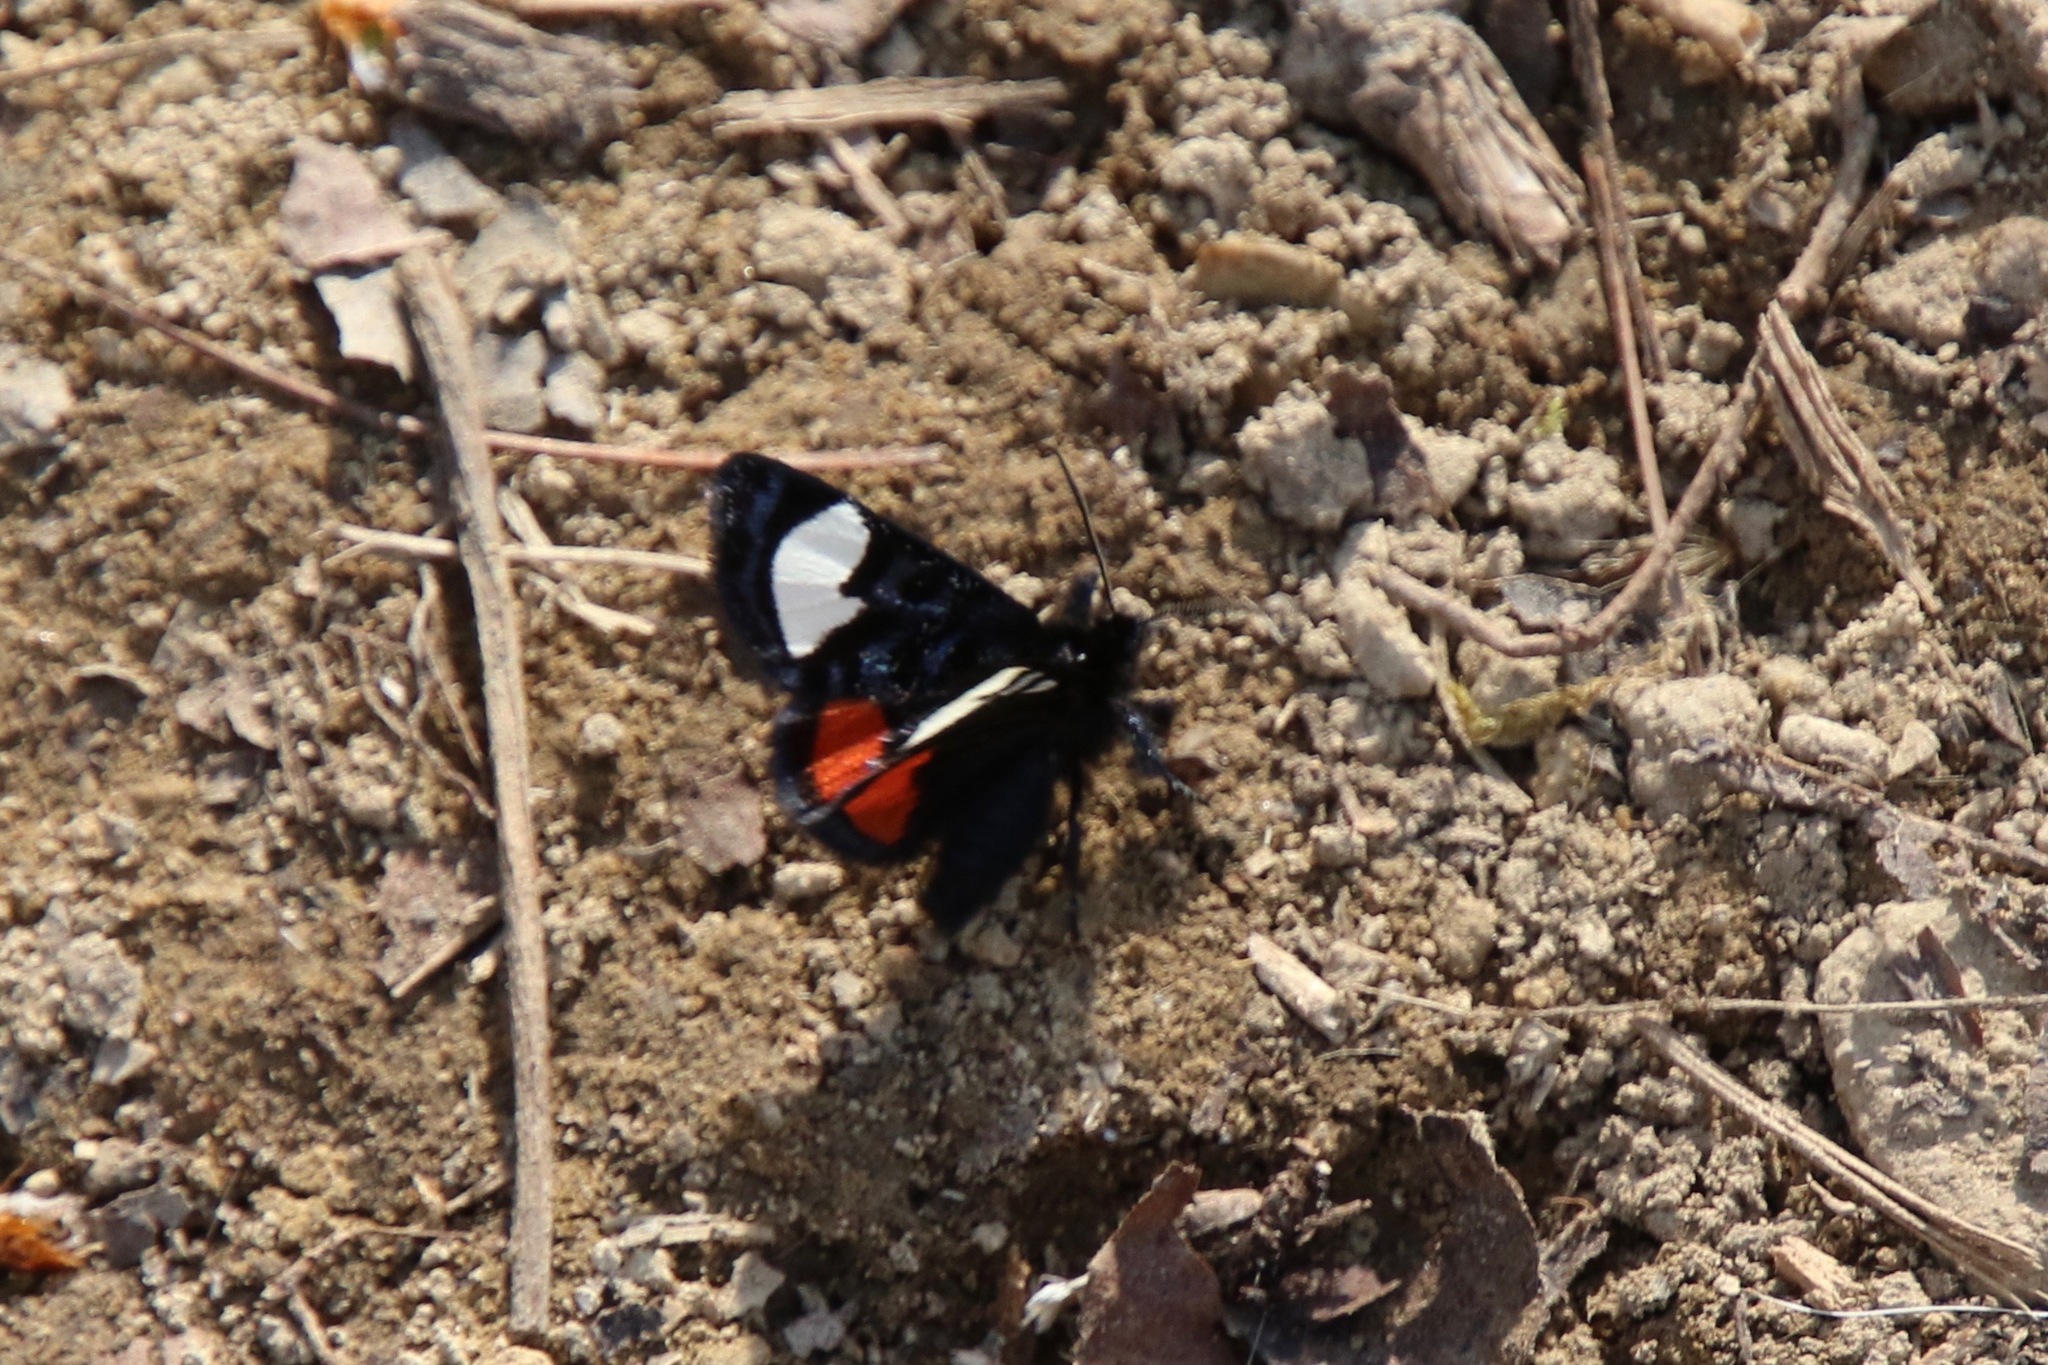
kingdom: Animalia
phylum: Arthropoda
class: Insecta
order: Lepidoptera
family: Noctuidae
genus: Psychomorpha
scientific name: Psychomorpha epimenis
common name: Grapevine epimenis moth
